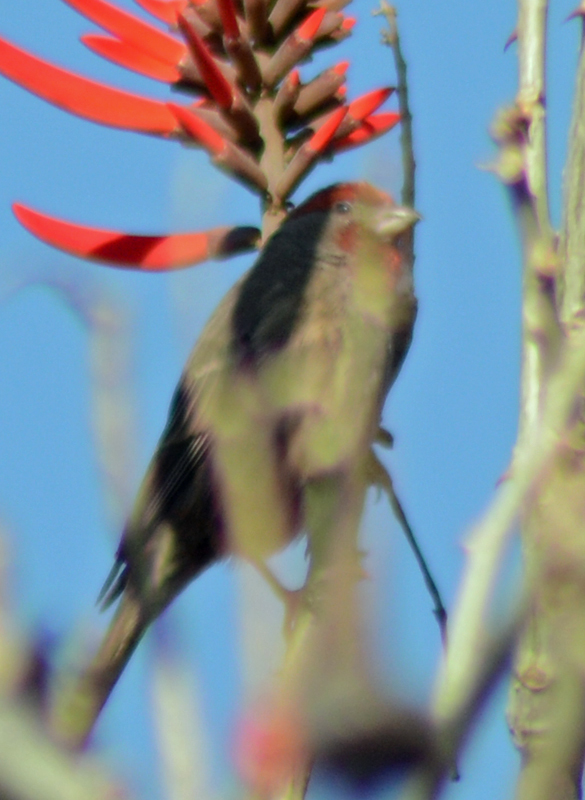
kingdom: Animalia
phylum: Chordata
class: Aves
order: Passeriformes
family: Fringillidae
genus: Haemorhous
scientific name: Haemorhous mexicanus
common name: House finch
